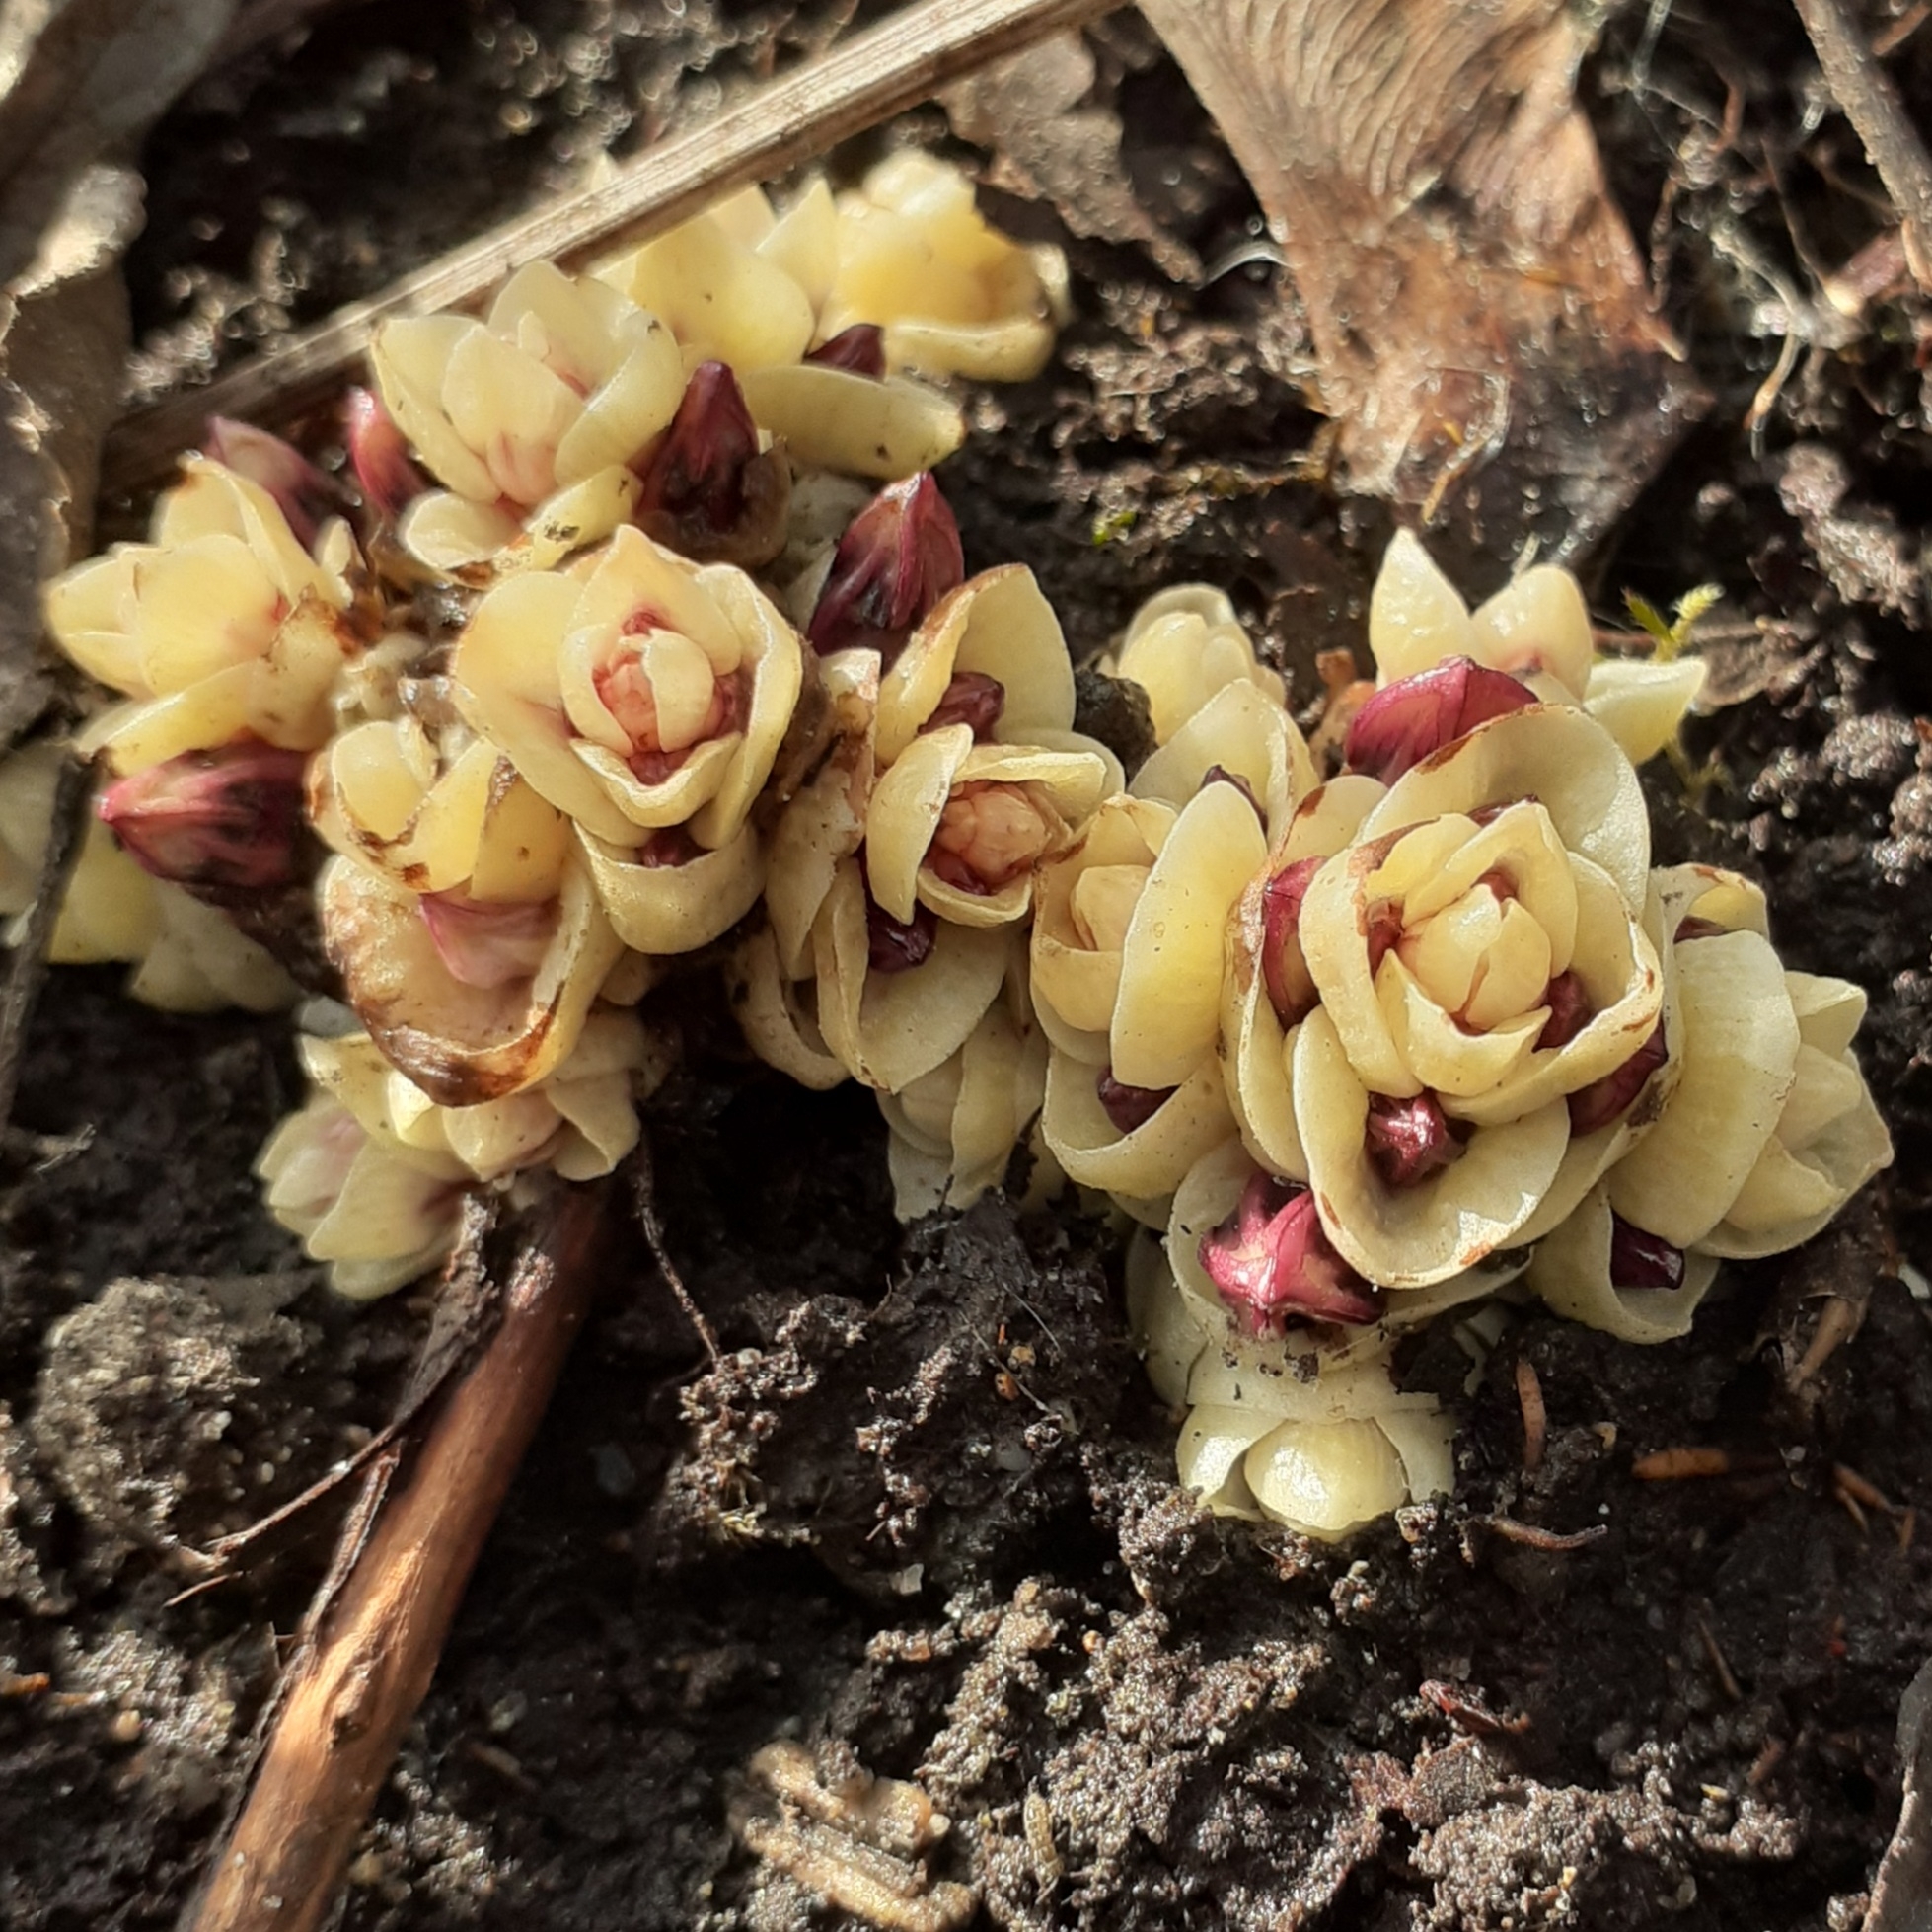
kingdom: Plantae
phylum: Tracheophyta
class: Magnoliopsida
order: Lamiales
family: Orobanchaceae
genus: Lathraea
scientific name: Lathraea clandestina
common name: Purple toothwort
